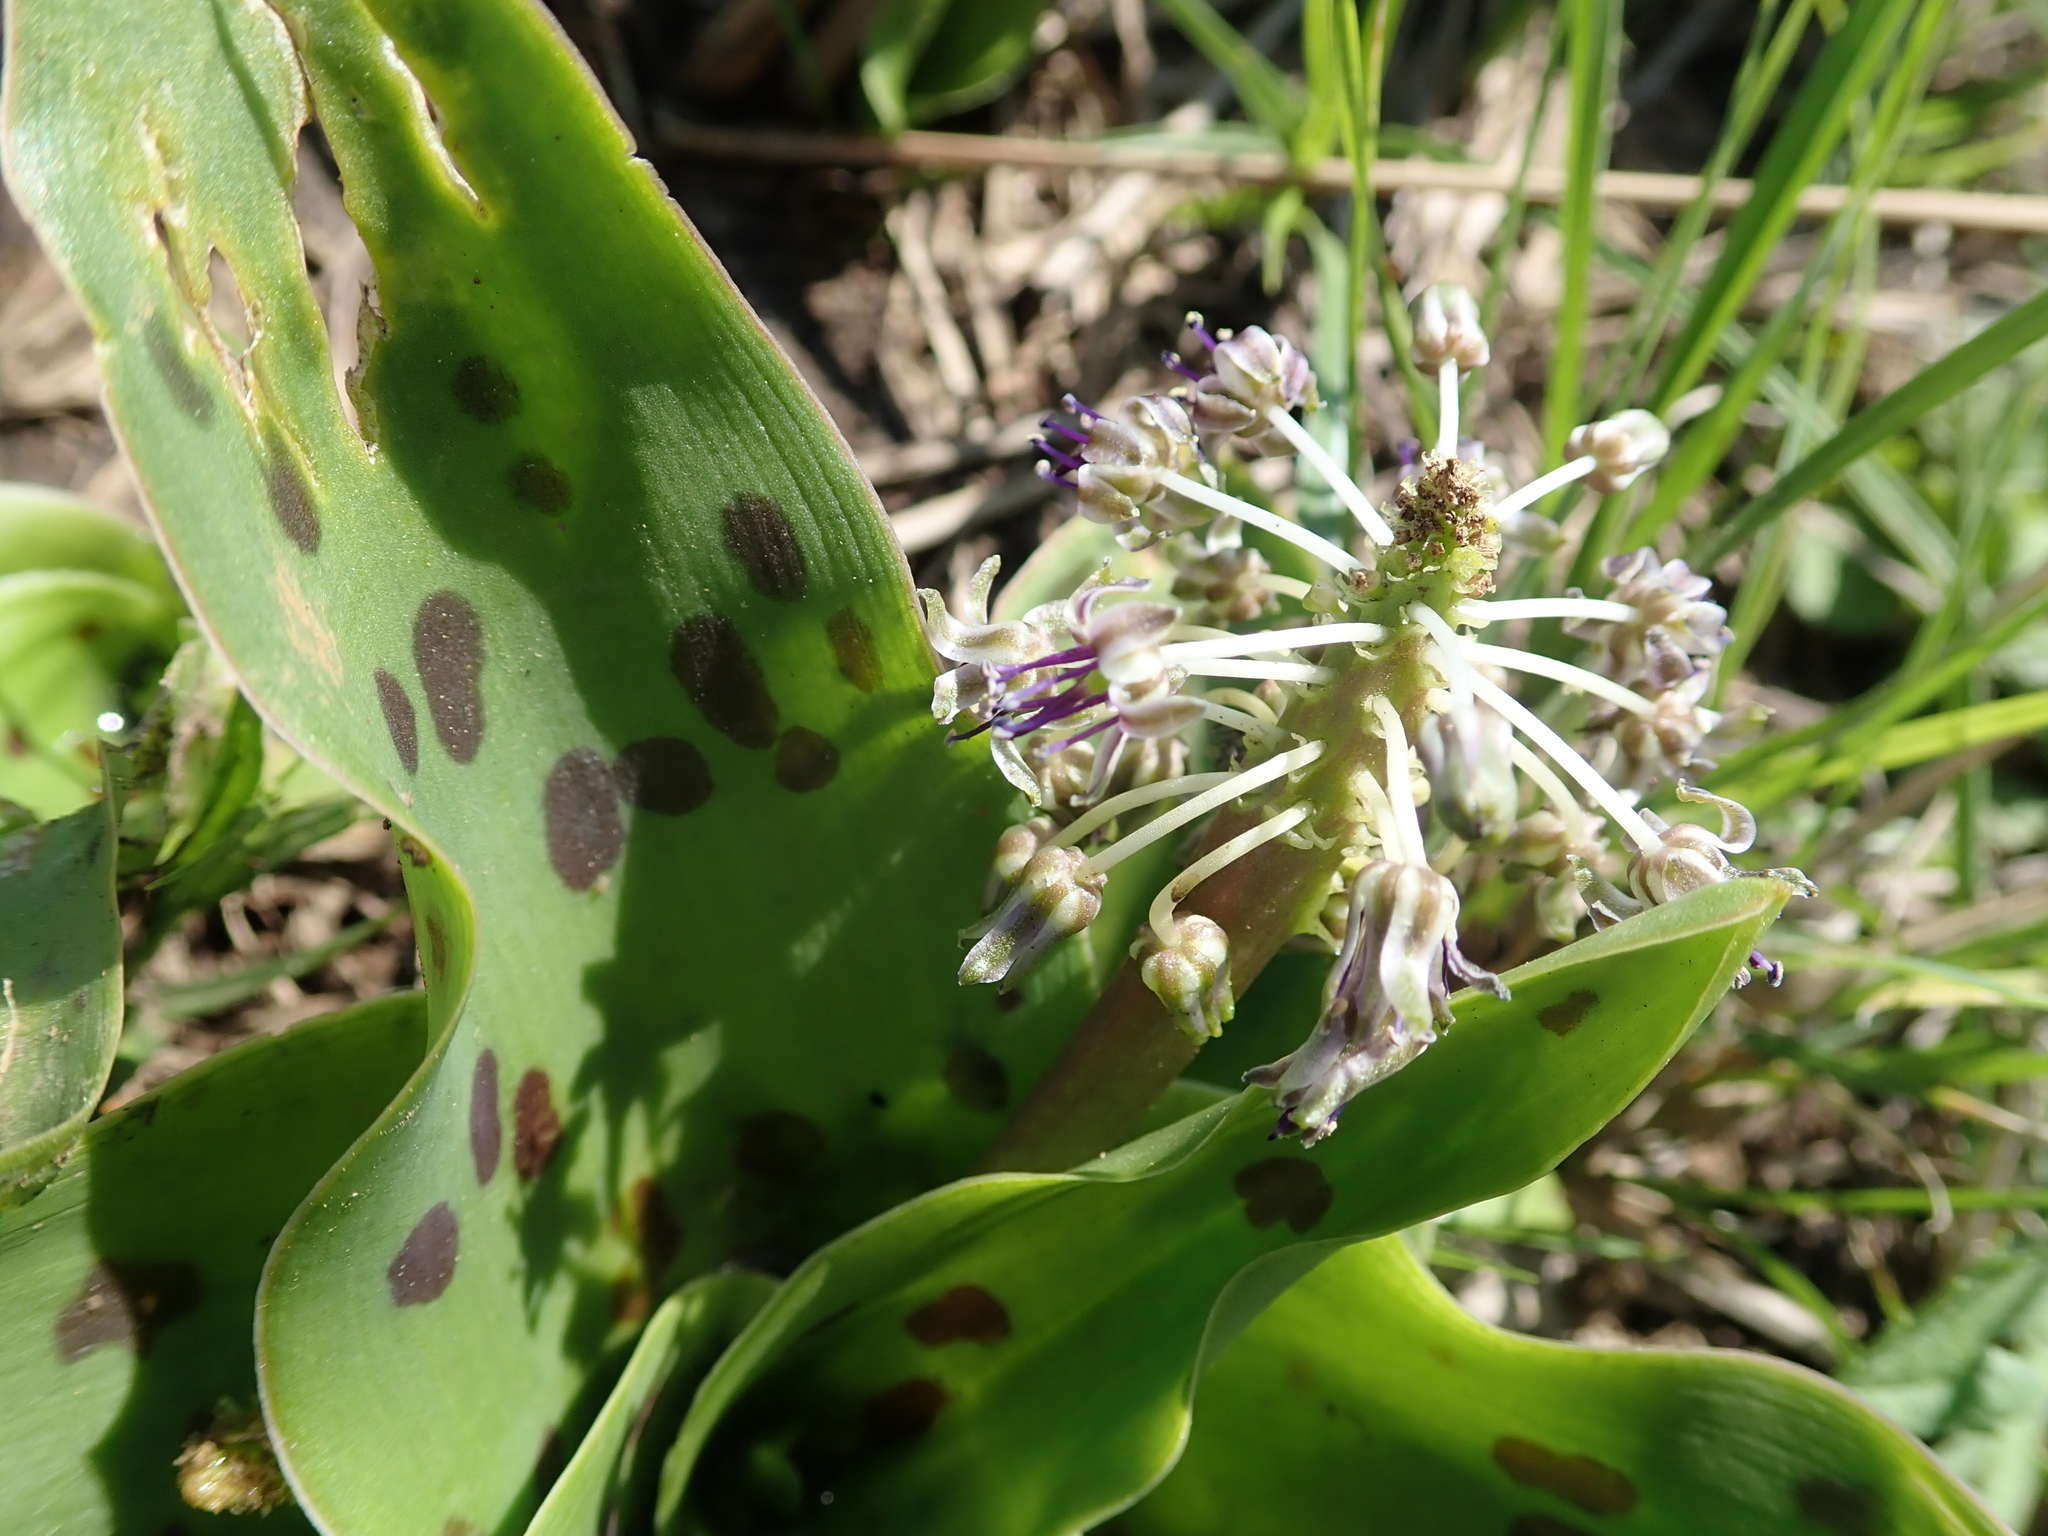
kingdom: Plantae
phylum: Tracheophyta
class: Liliopsida
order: Asparagales
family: Asparagaceae
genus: Ledebouria
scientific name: Ledebouria asperifolia
